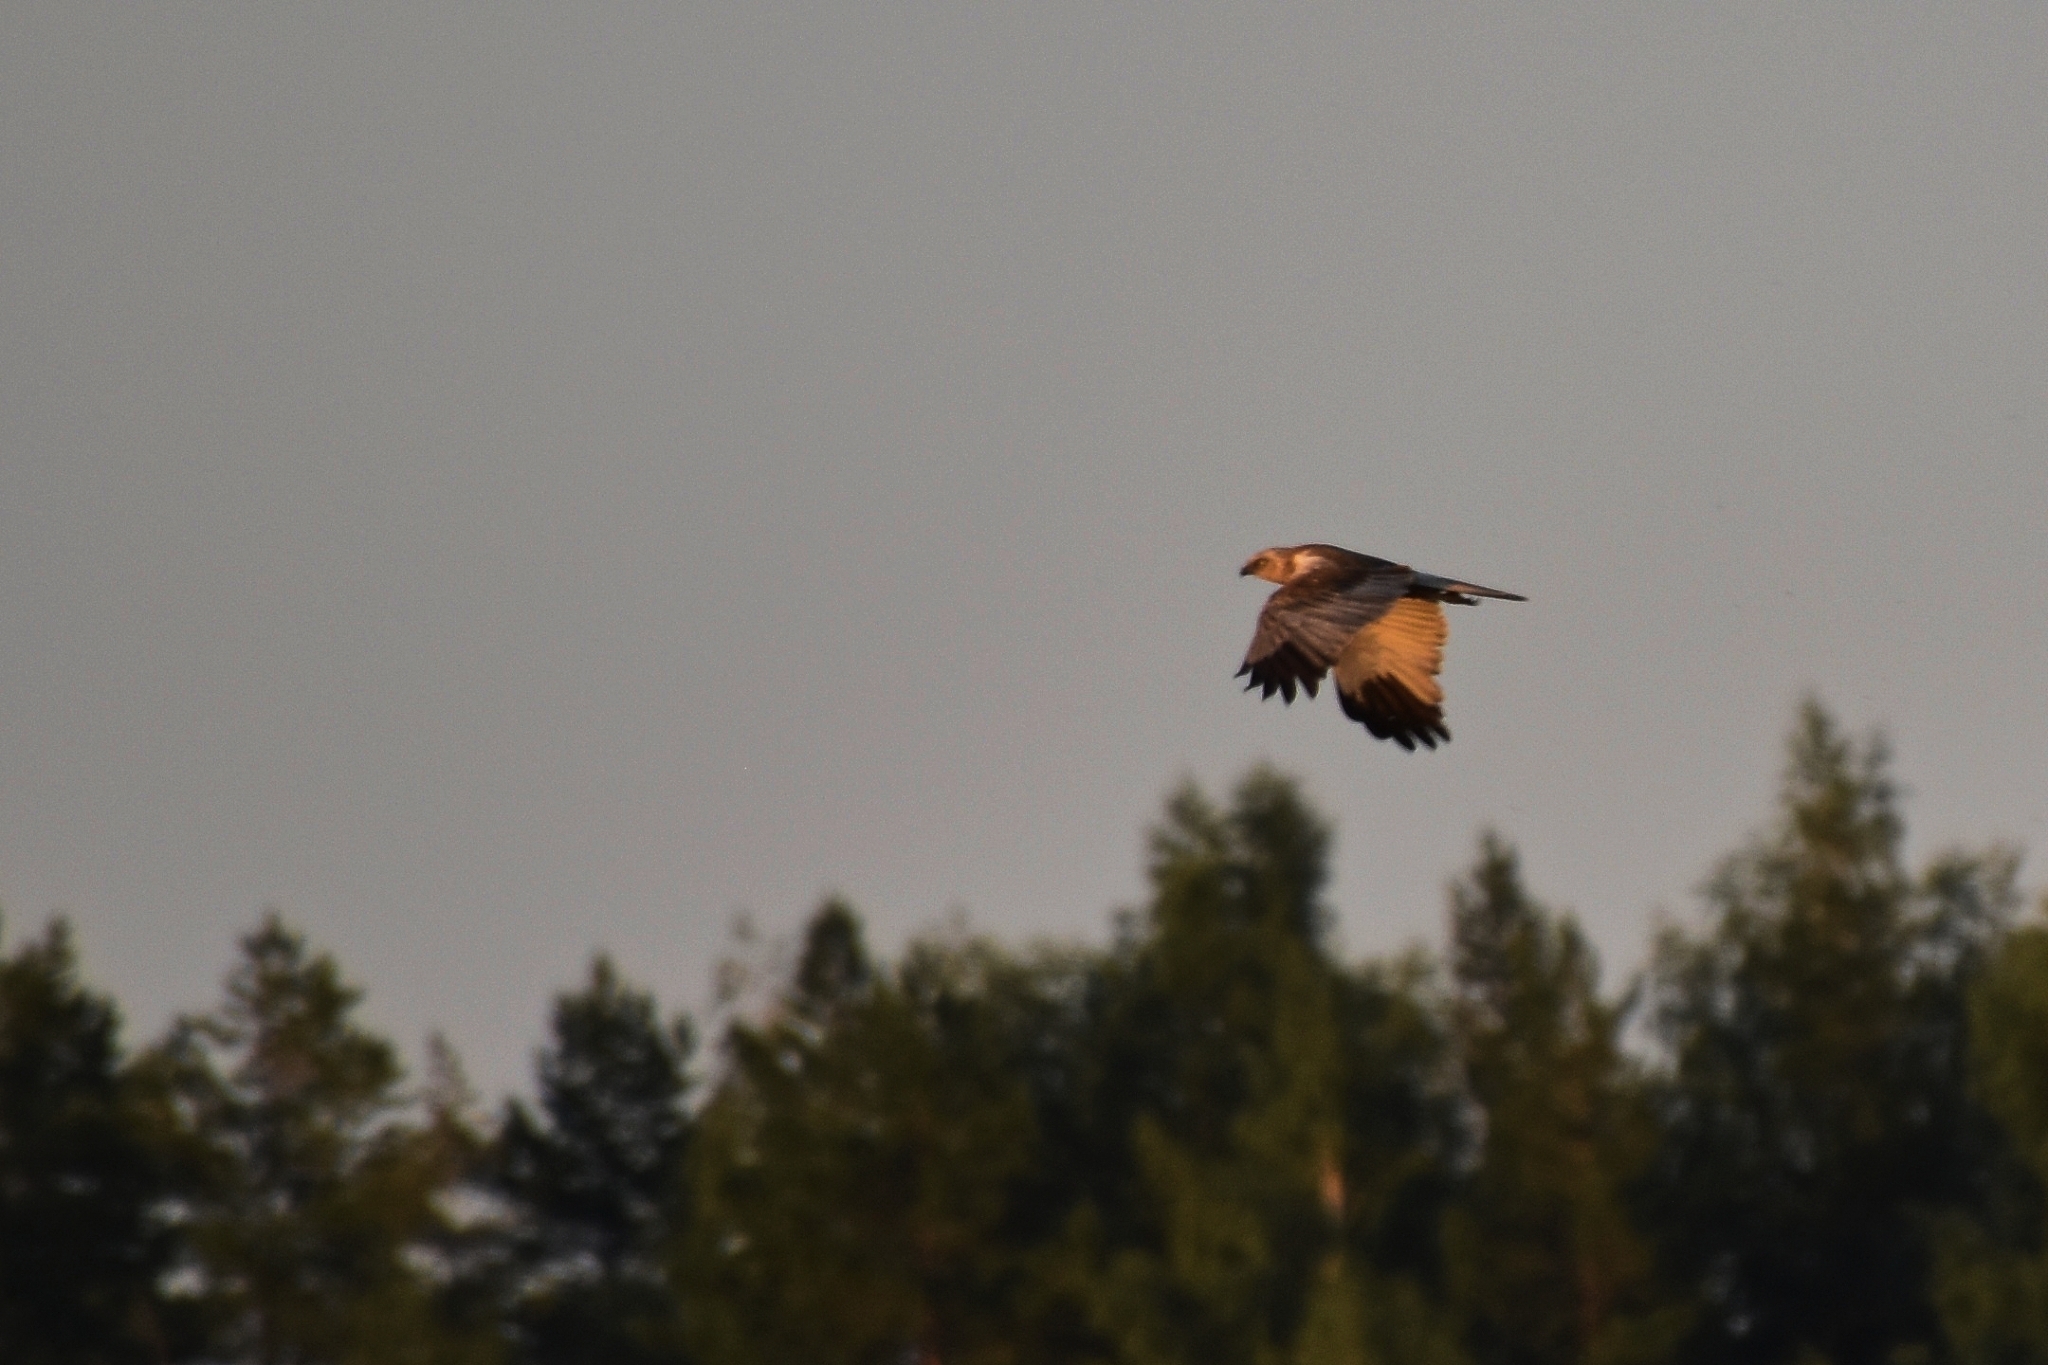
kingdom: Animalia
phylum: Chordata
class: Aves
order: Accipitriformes
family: Accipitridae
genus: Circus
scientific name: Circus aeruginosus
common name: Western marsh harrier
